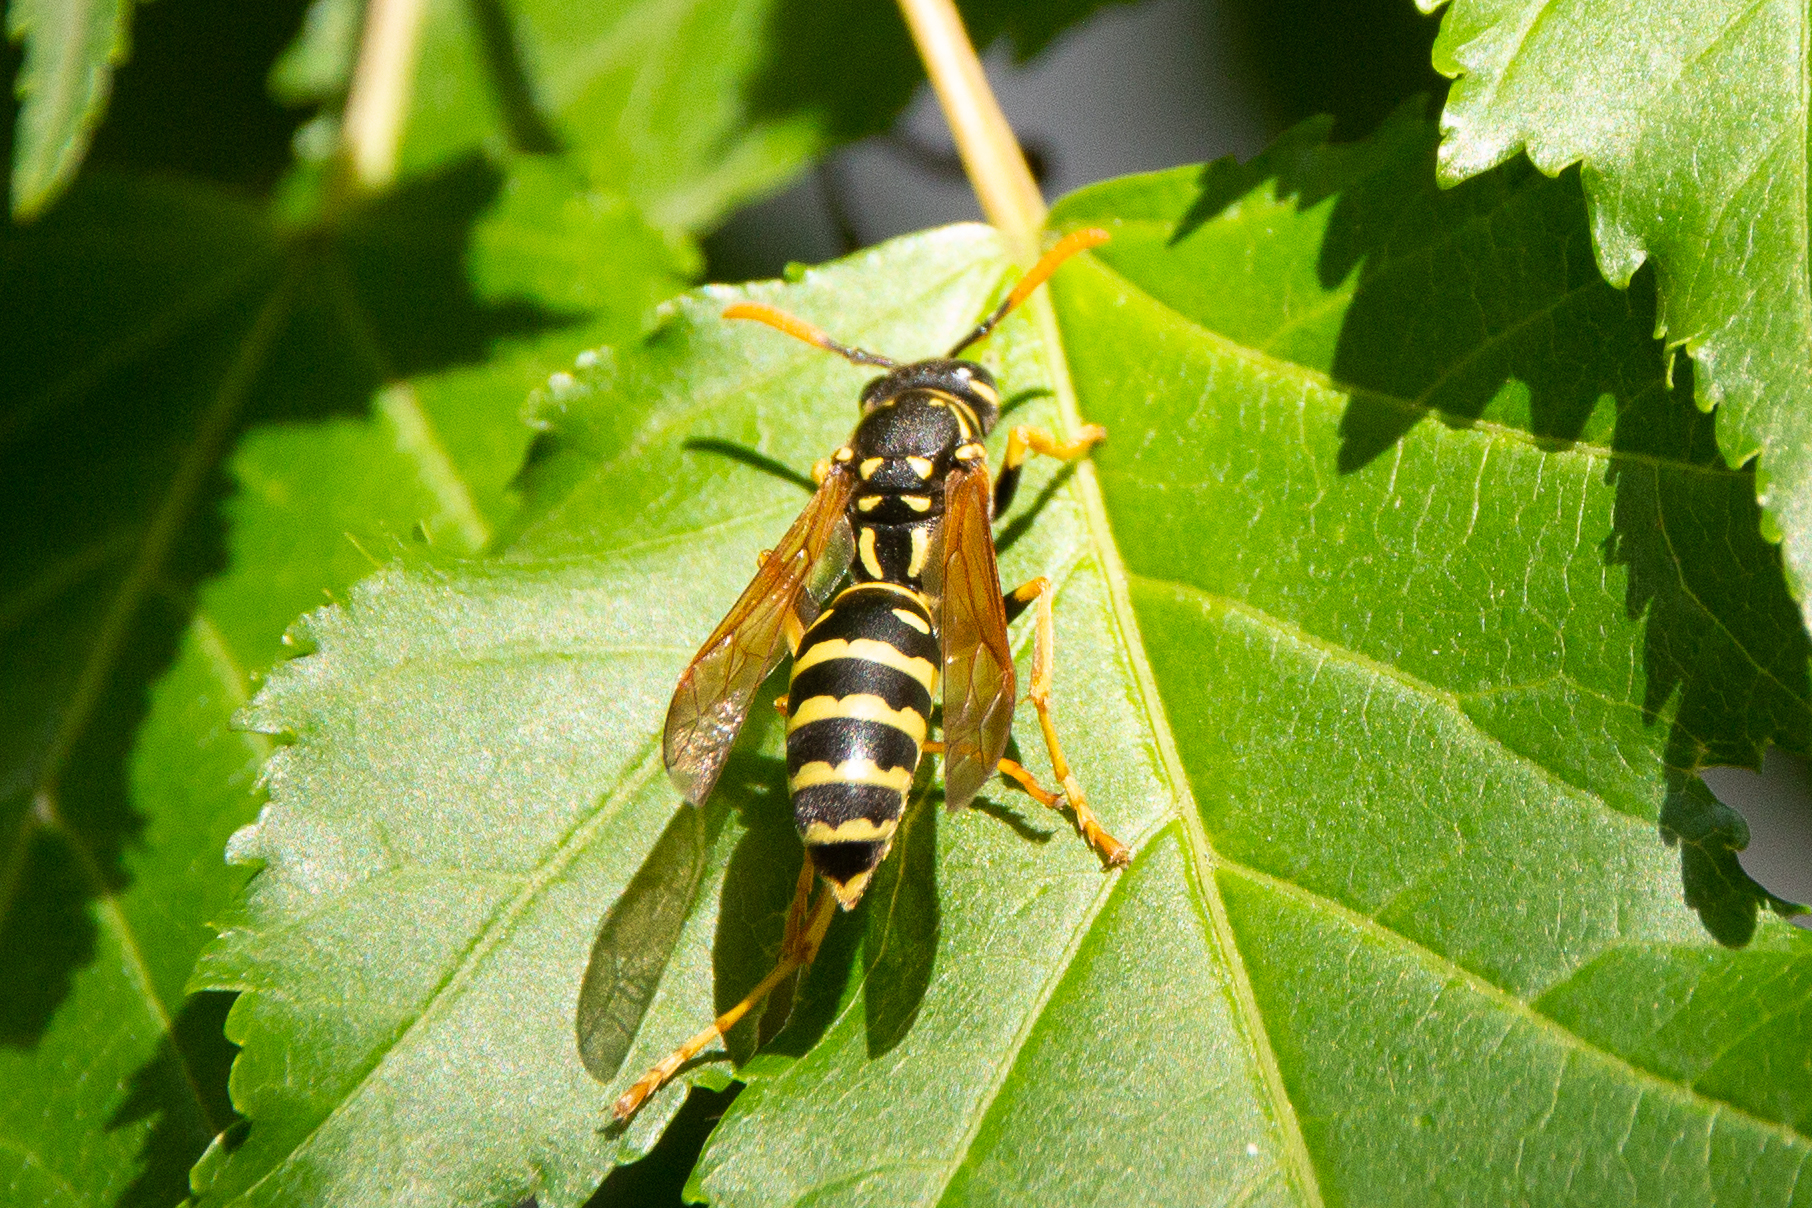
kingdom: Animalia
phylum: Arthropoda
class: Insecta
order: Hymenoptera
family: Eumenidae
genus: Polistes
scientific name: Polistes dominula
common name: Paper wasp
